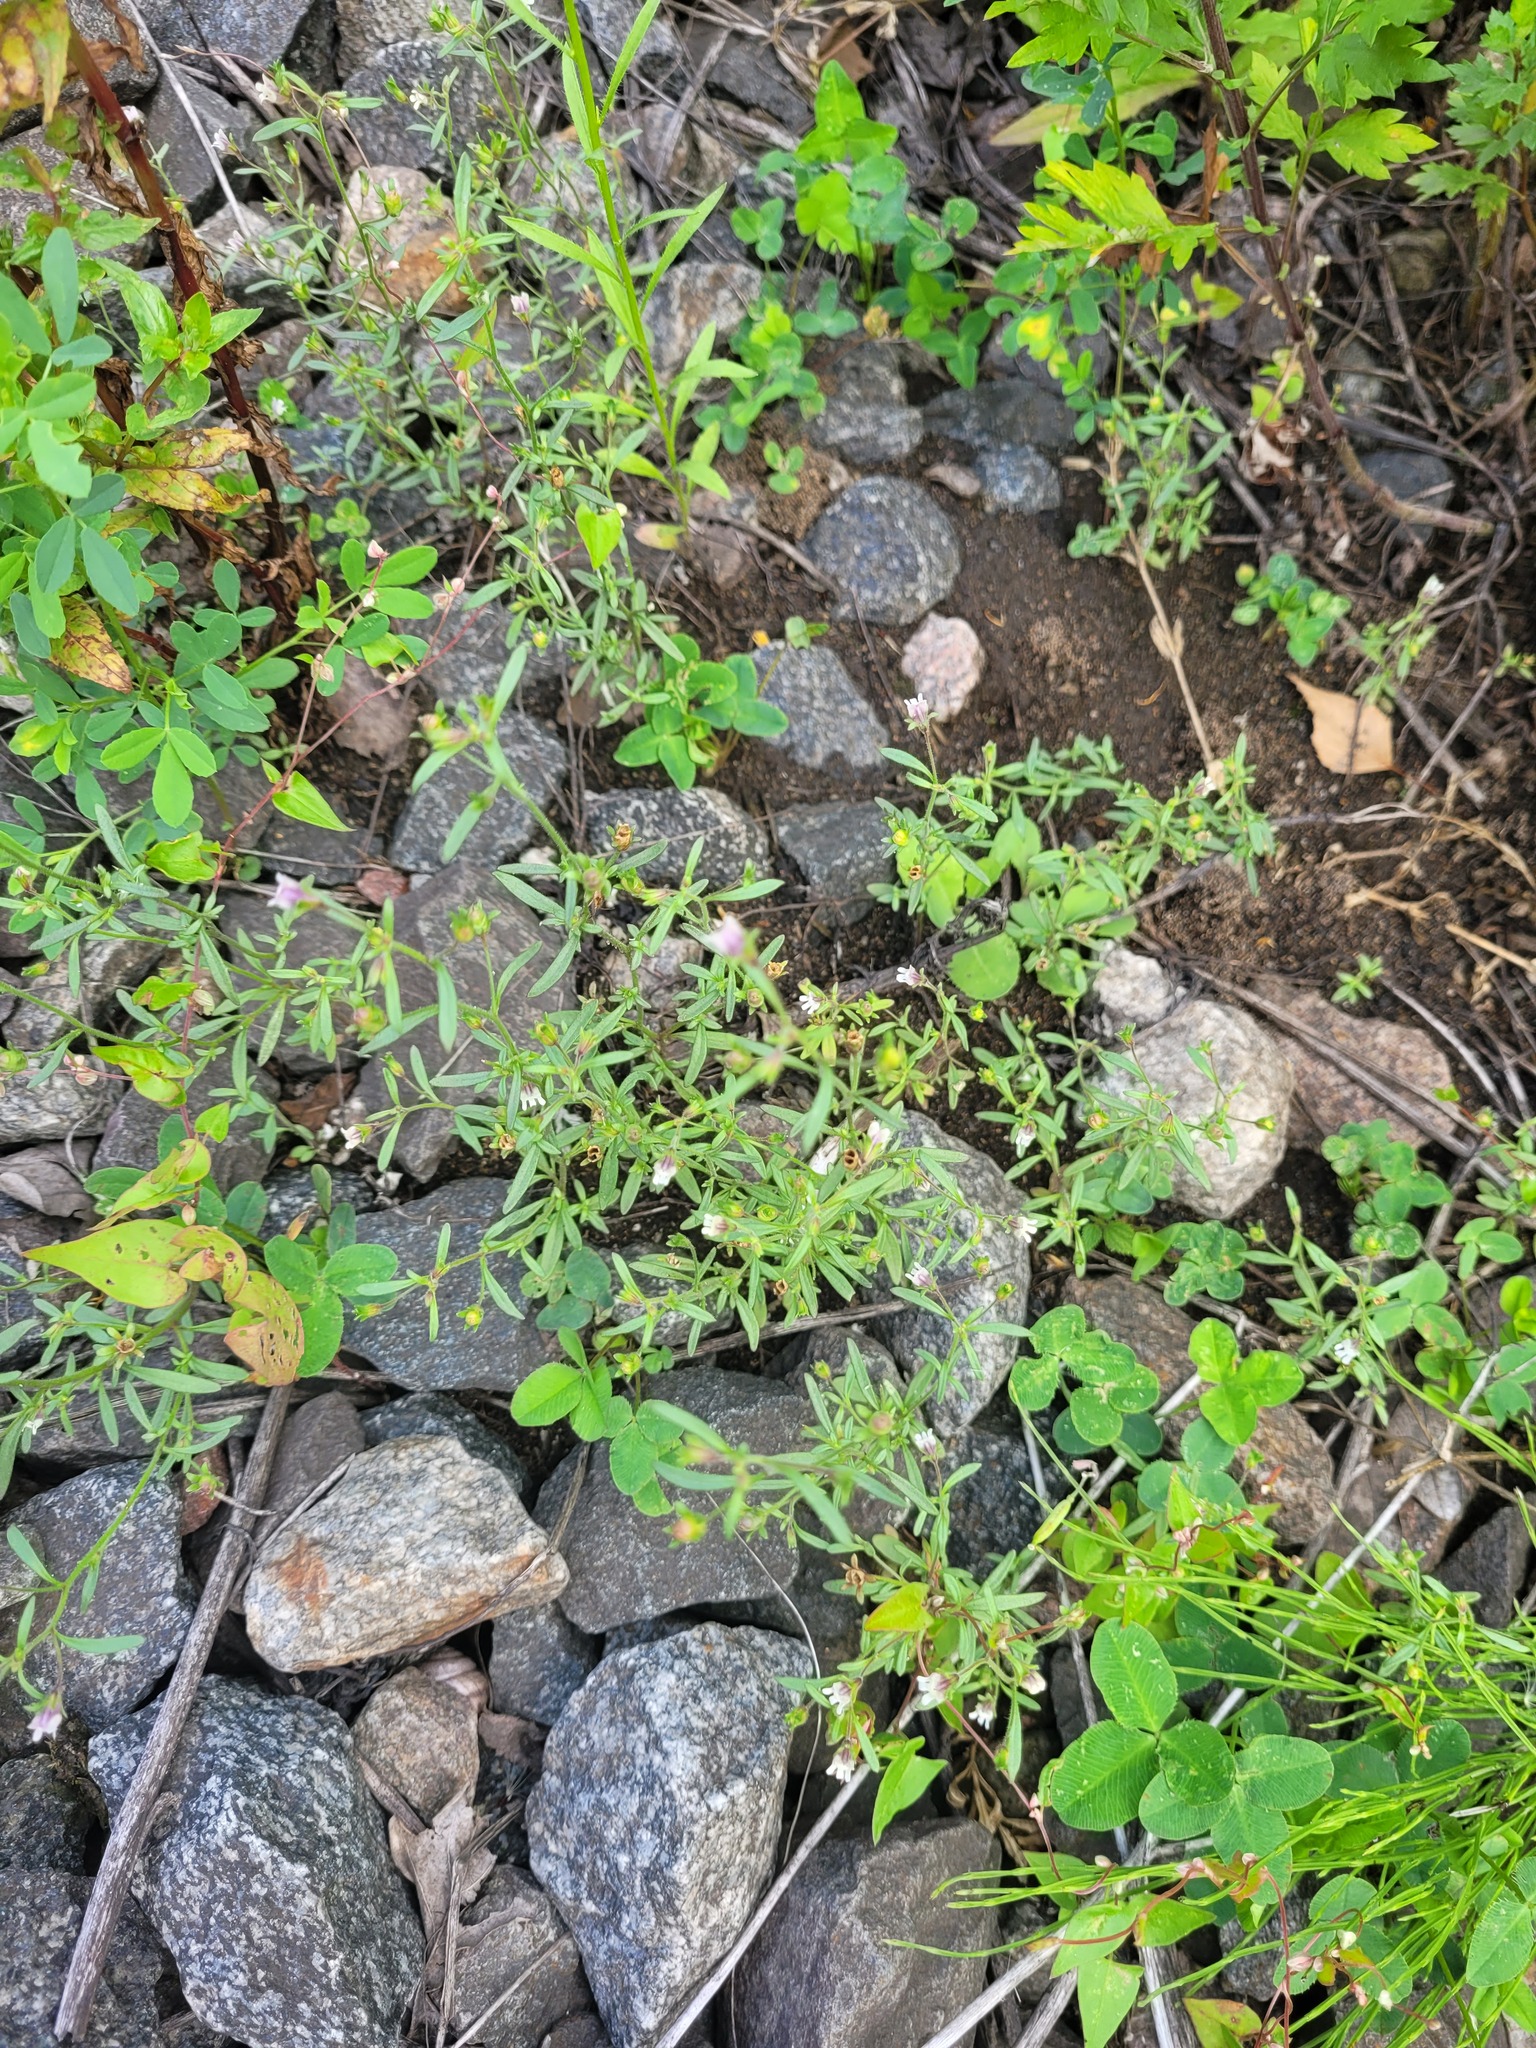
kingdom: Plantae
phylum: Tracheophyta
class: Magnoliopsida
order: Lamiales
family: Plantaginaceae
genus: Chaenorhinum
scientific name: Chaenorhinum minus
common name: Dwarf snapdragon
